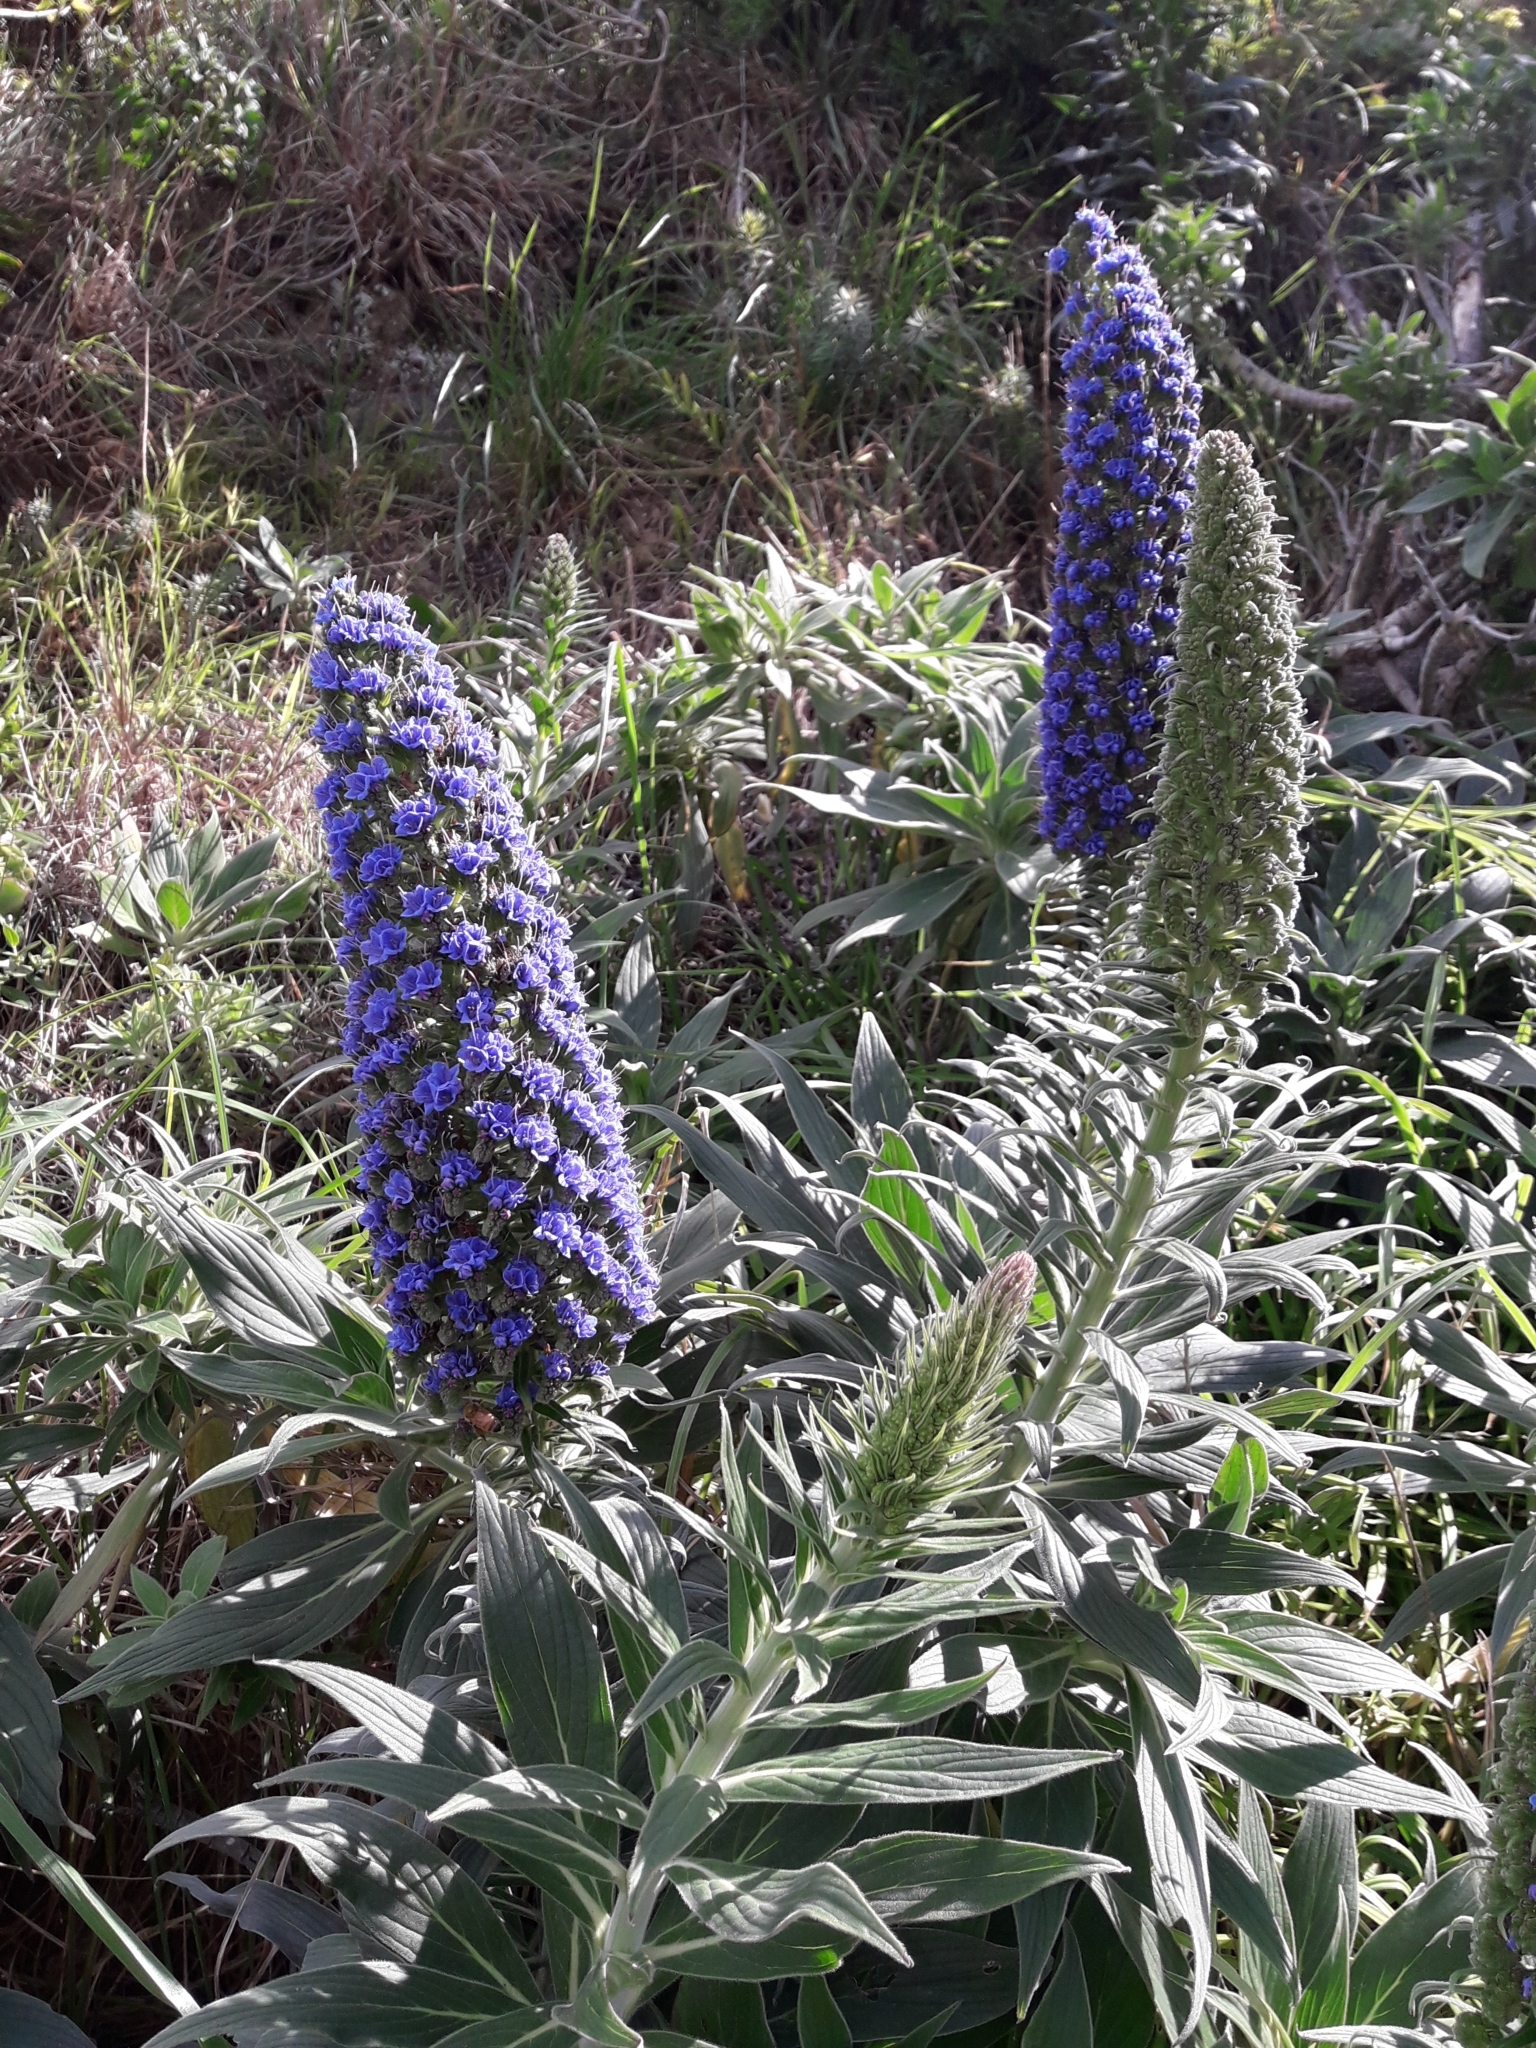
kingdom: Plantae
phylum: Tracheophyta
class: Magnoliopsida
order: Boraginales
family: Boraginaceae
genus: Echium
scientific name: Echium candicans
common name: Pride of madeira
